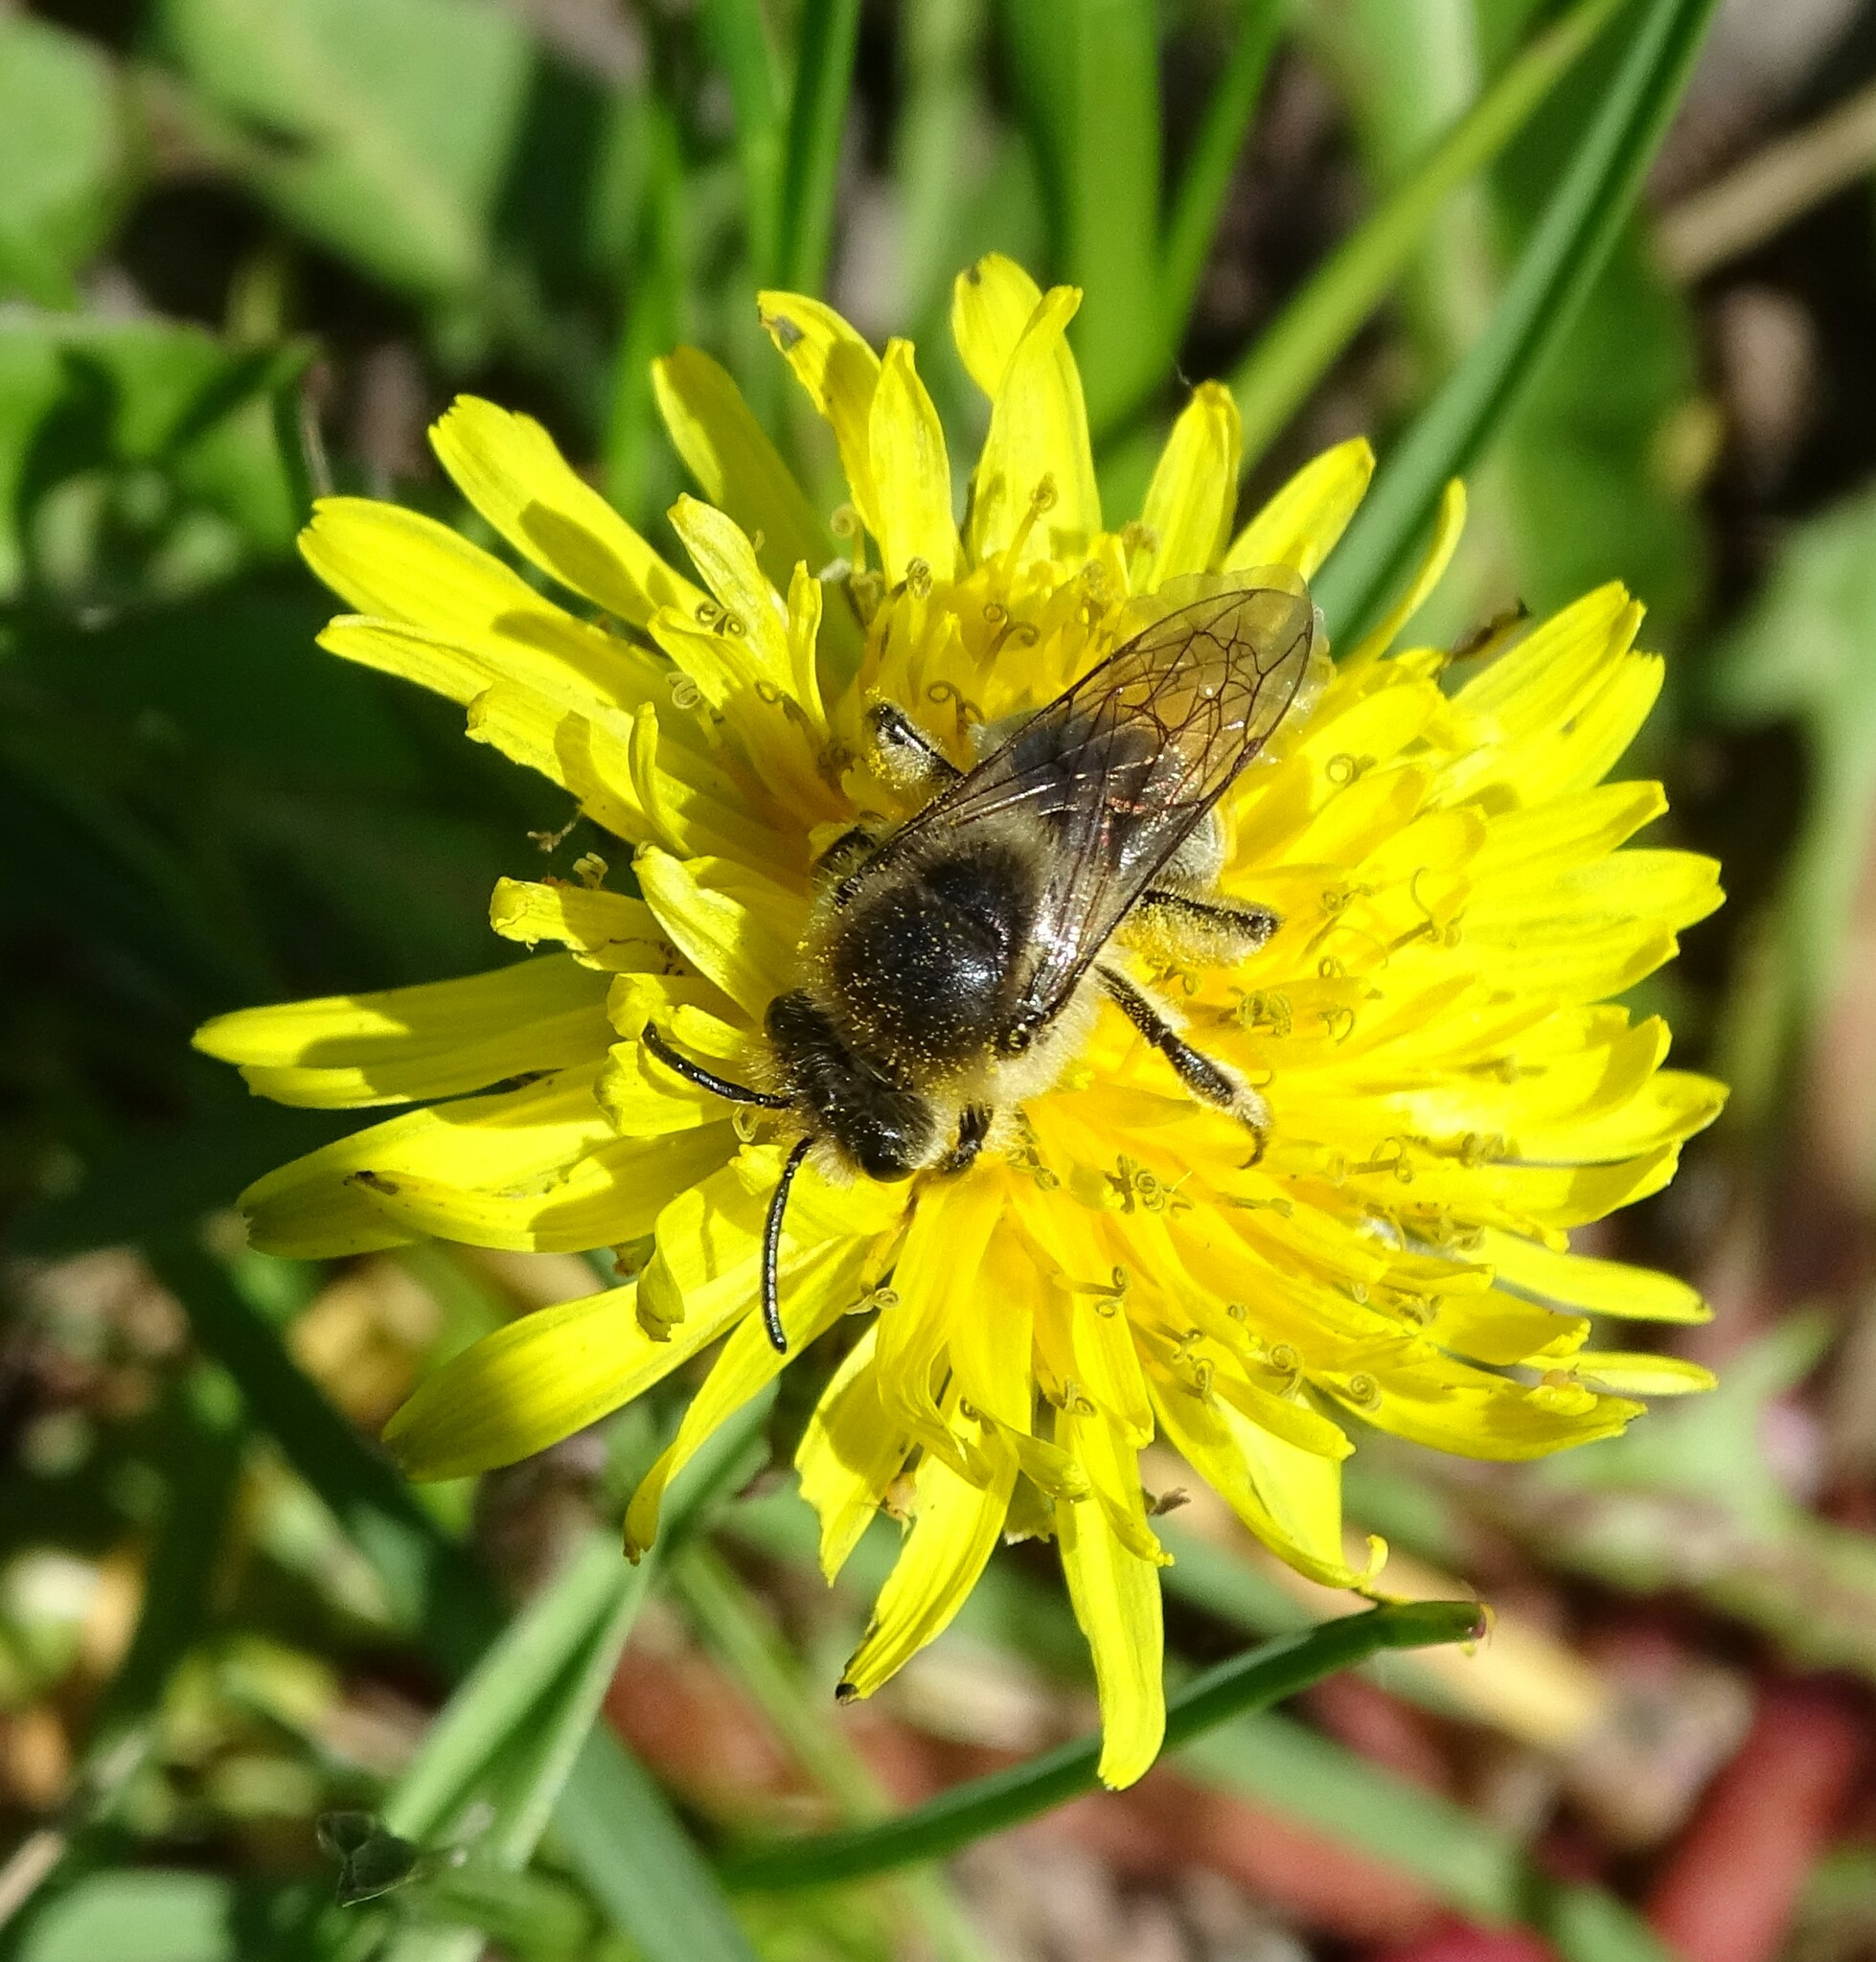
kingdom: Animalia
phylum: Arthropoda
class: Insecta
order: Hymenoptera
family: Colletidae
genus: Colletes
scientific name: Colletes inaequalis
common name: Unequal cellophane bee
